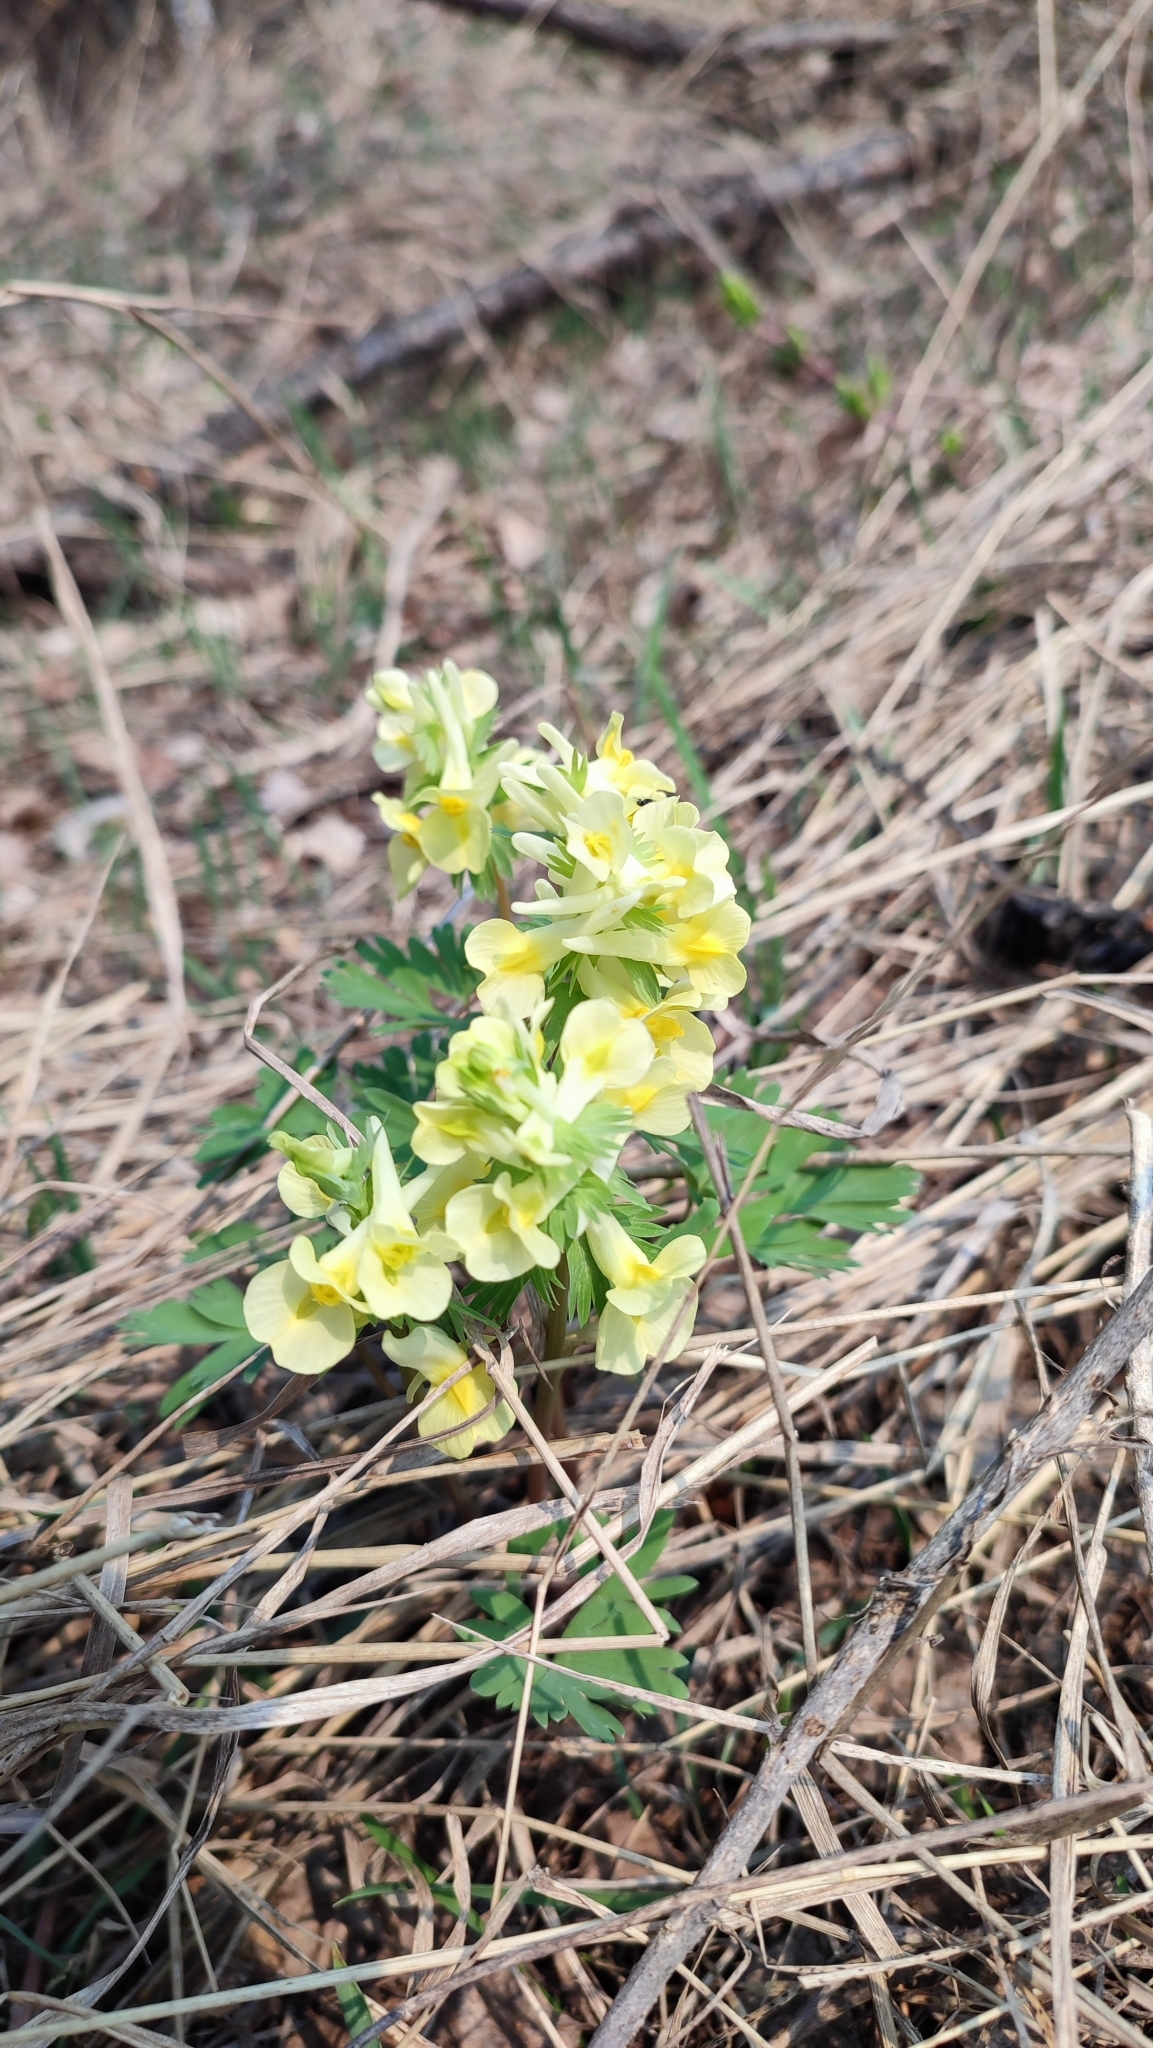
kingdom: Plantae
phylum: Tracheophyta
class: Magnoliopsida
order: Ranunculales
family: Papaveraceae
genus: Corydalis
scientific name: Corydalis bracteata
